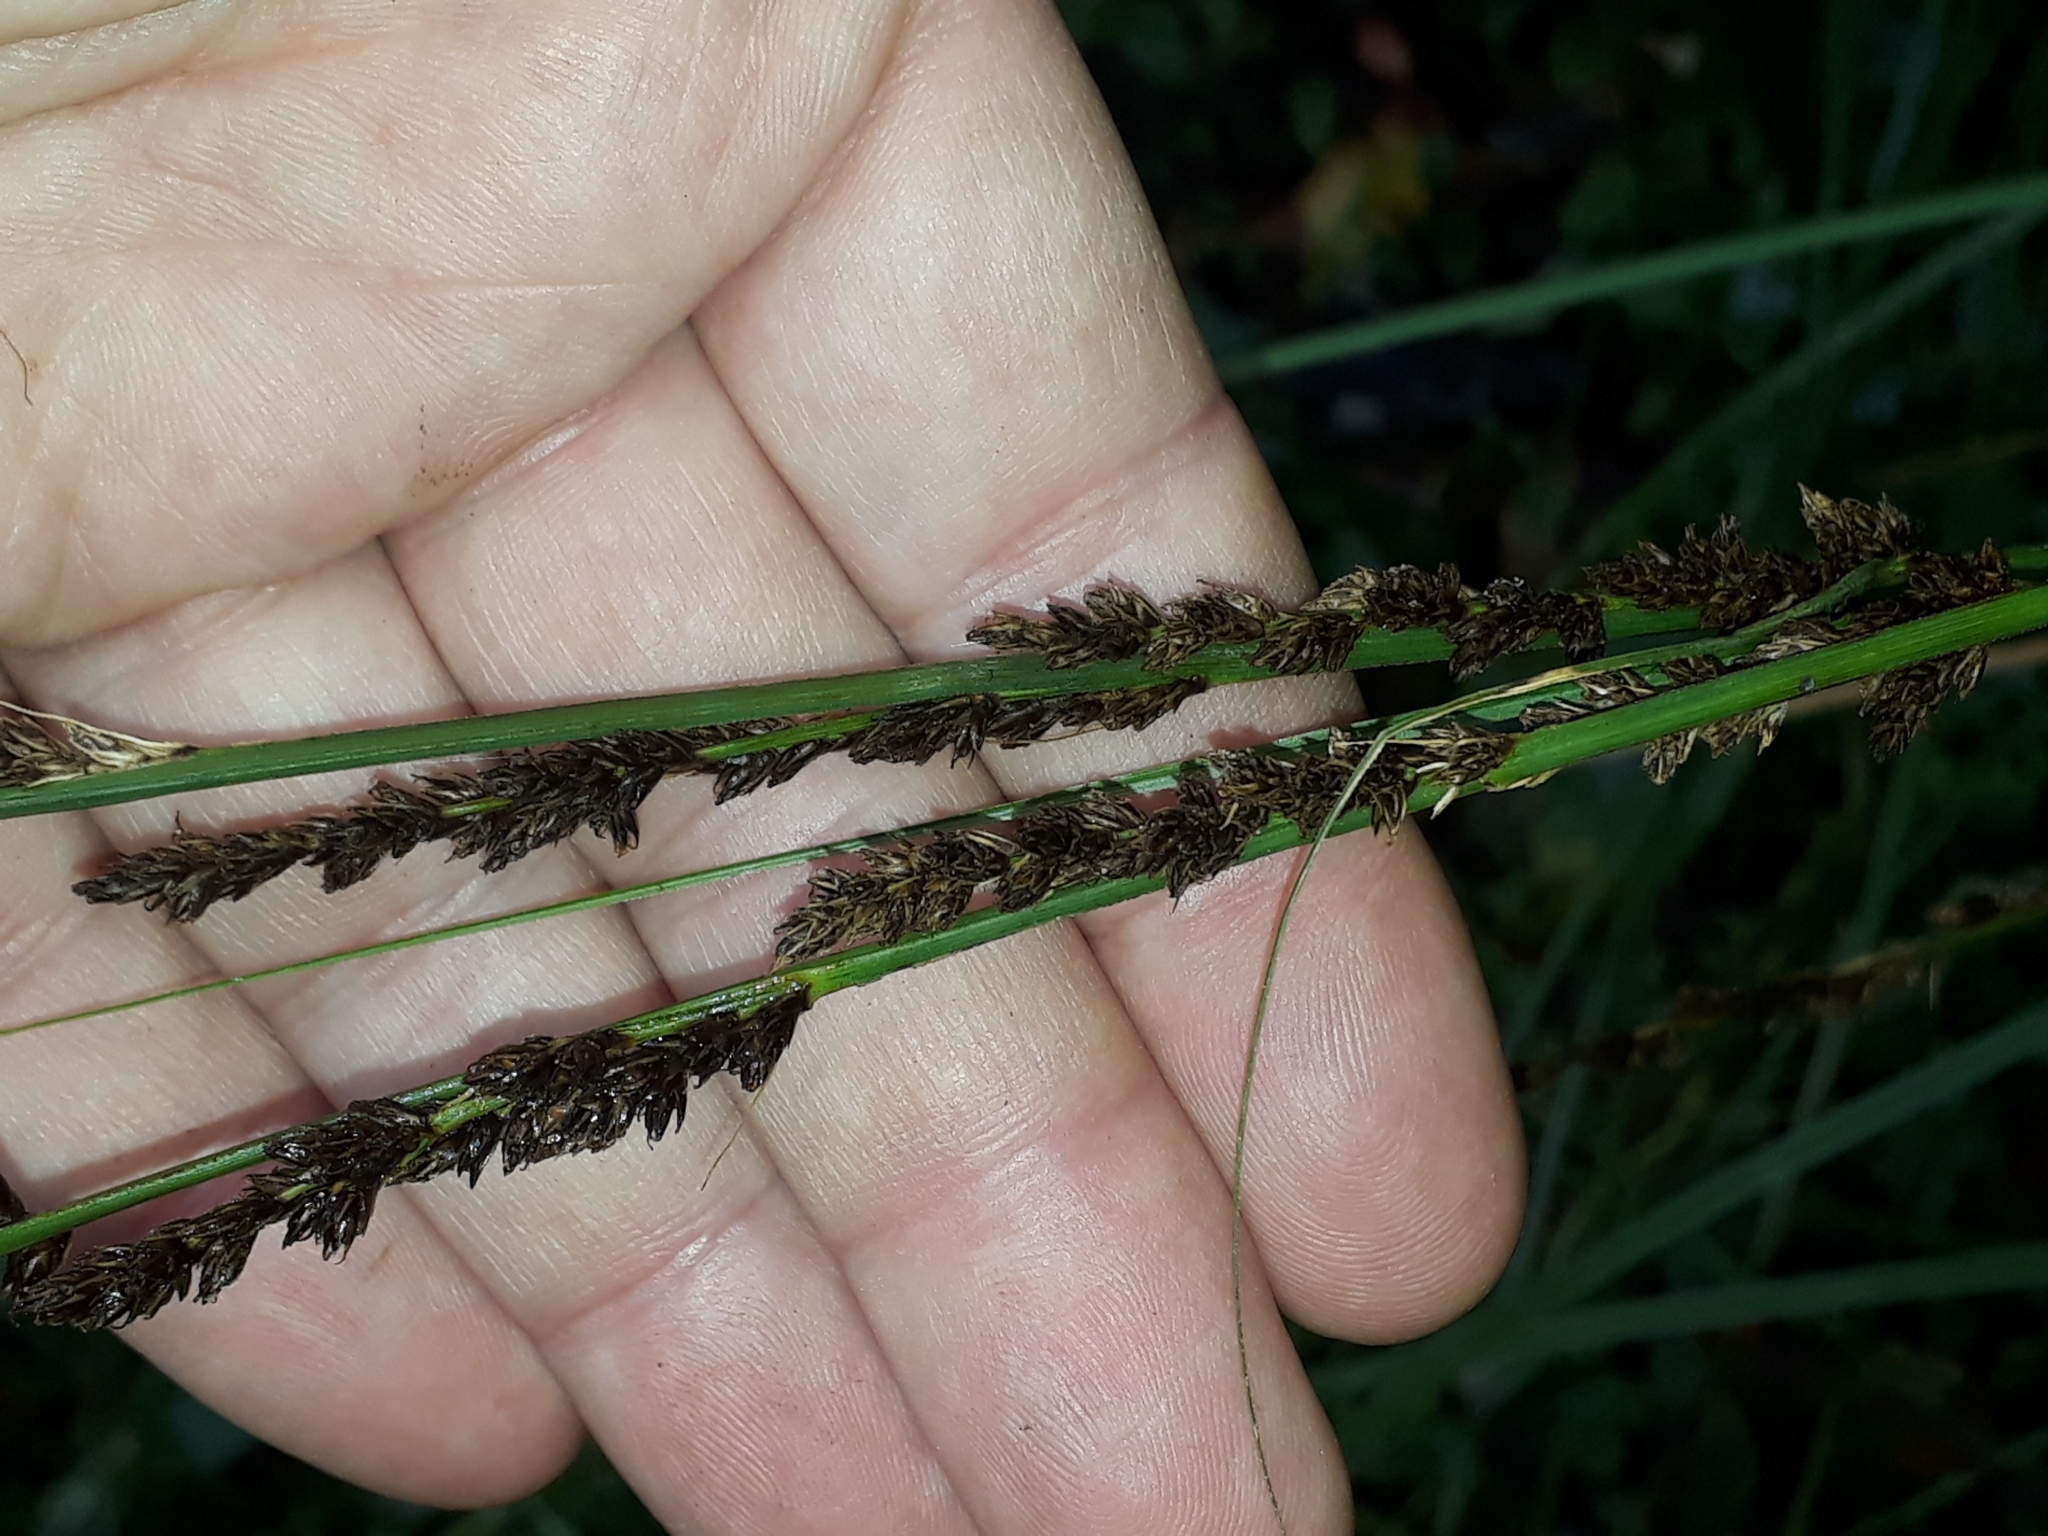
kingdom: Plantae
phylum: Tracheophyta
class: Liliopsida
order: Poales
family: Cyperaceae
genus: Carex
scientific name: Carex virgata
